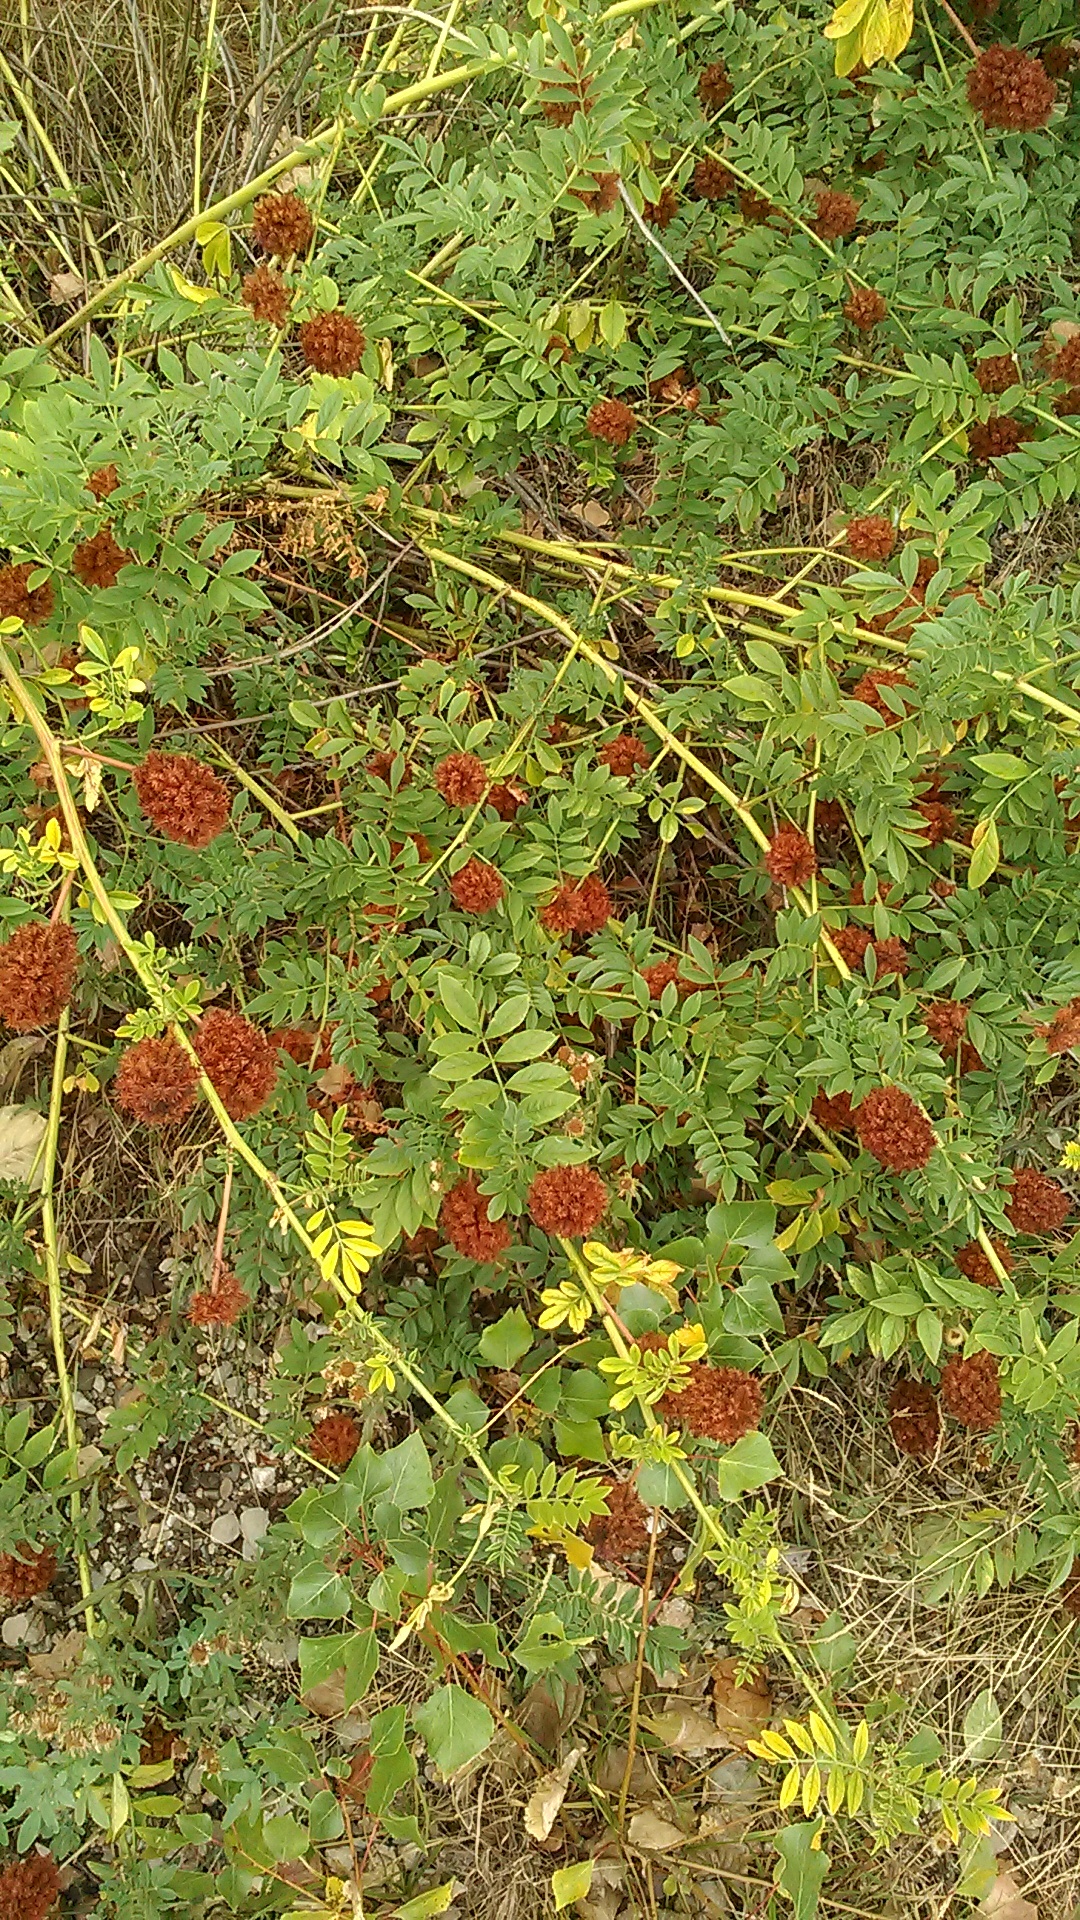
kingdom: Plantae
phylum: Tracheophyta
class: Magnoliopsida
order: Fabales
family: Fabaceae
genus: Glycyrrhiza
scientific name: Glycyrrhiza echinata
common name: German liquorice
